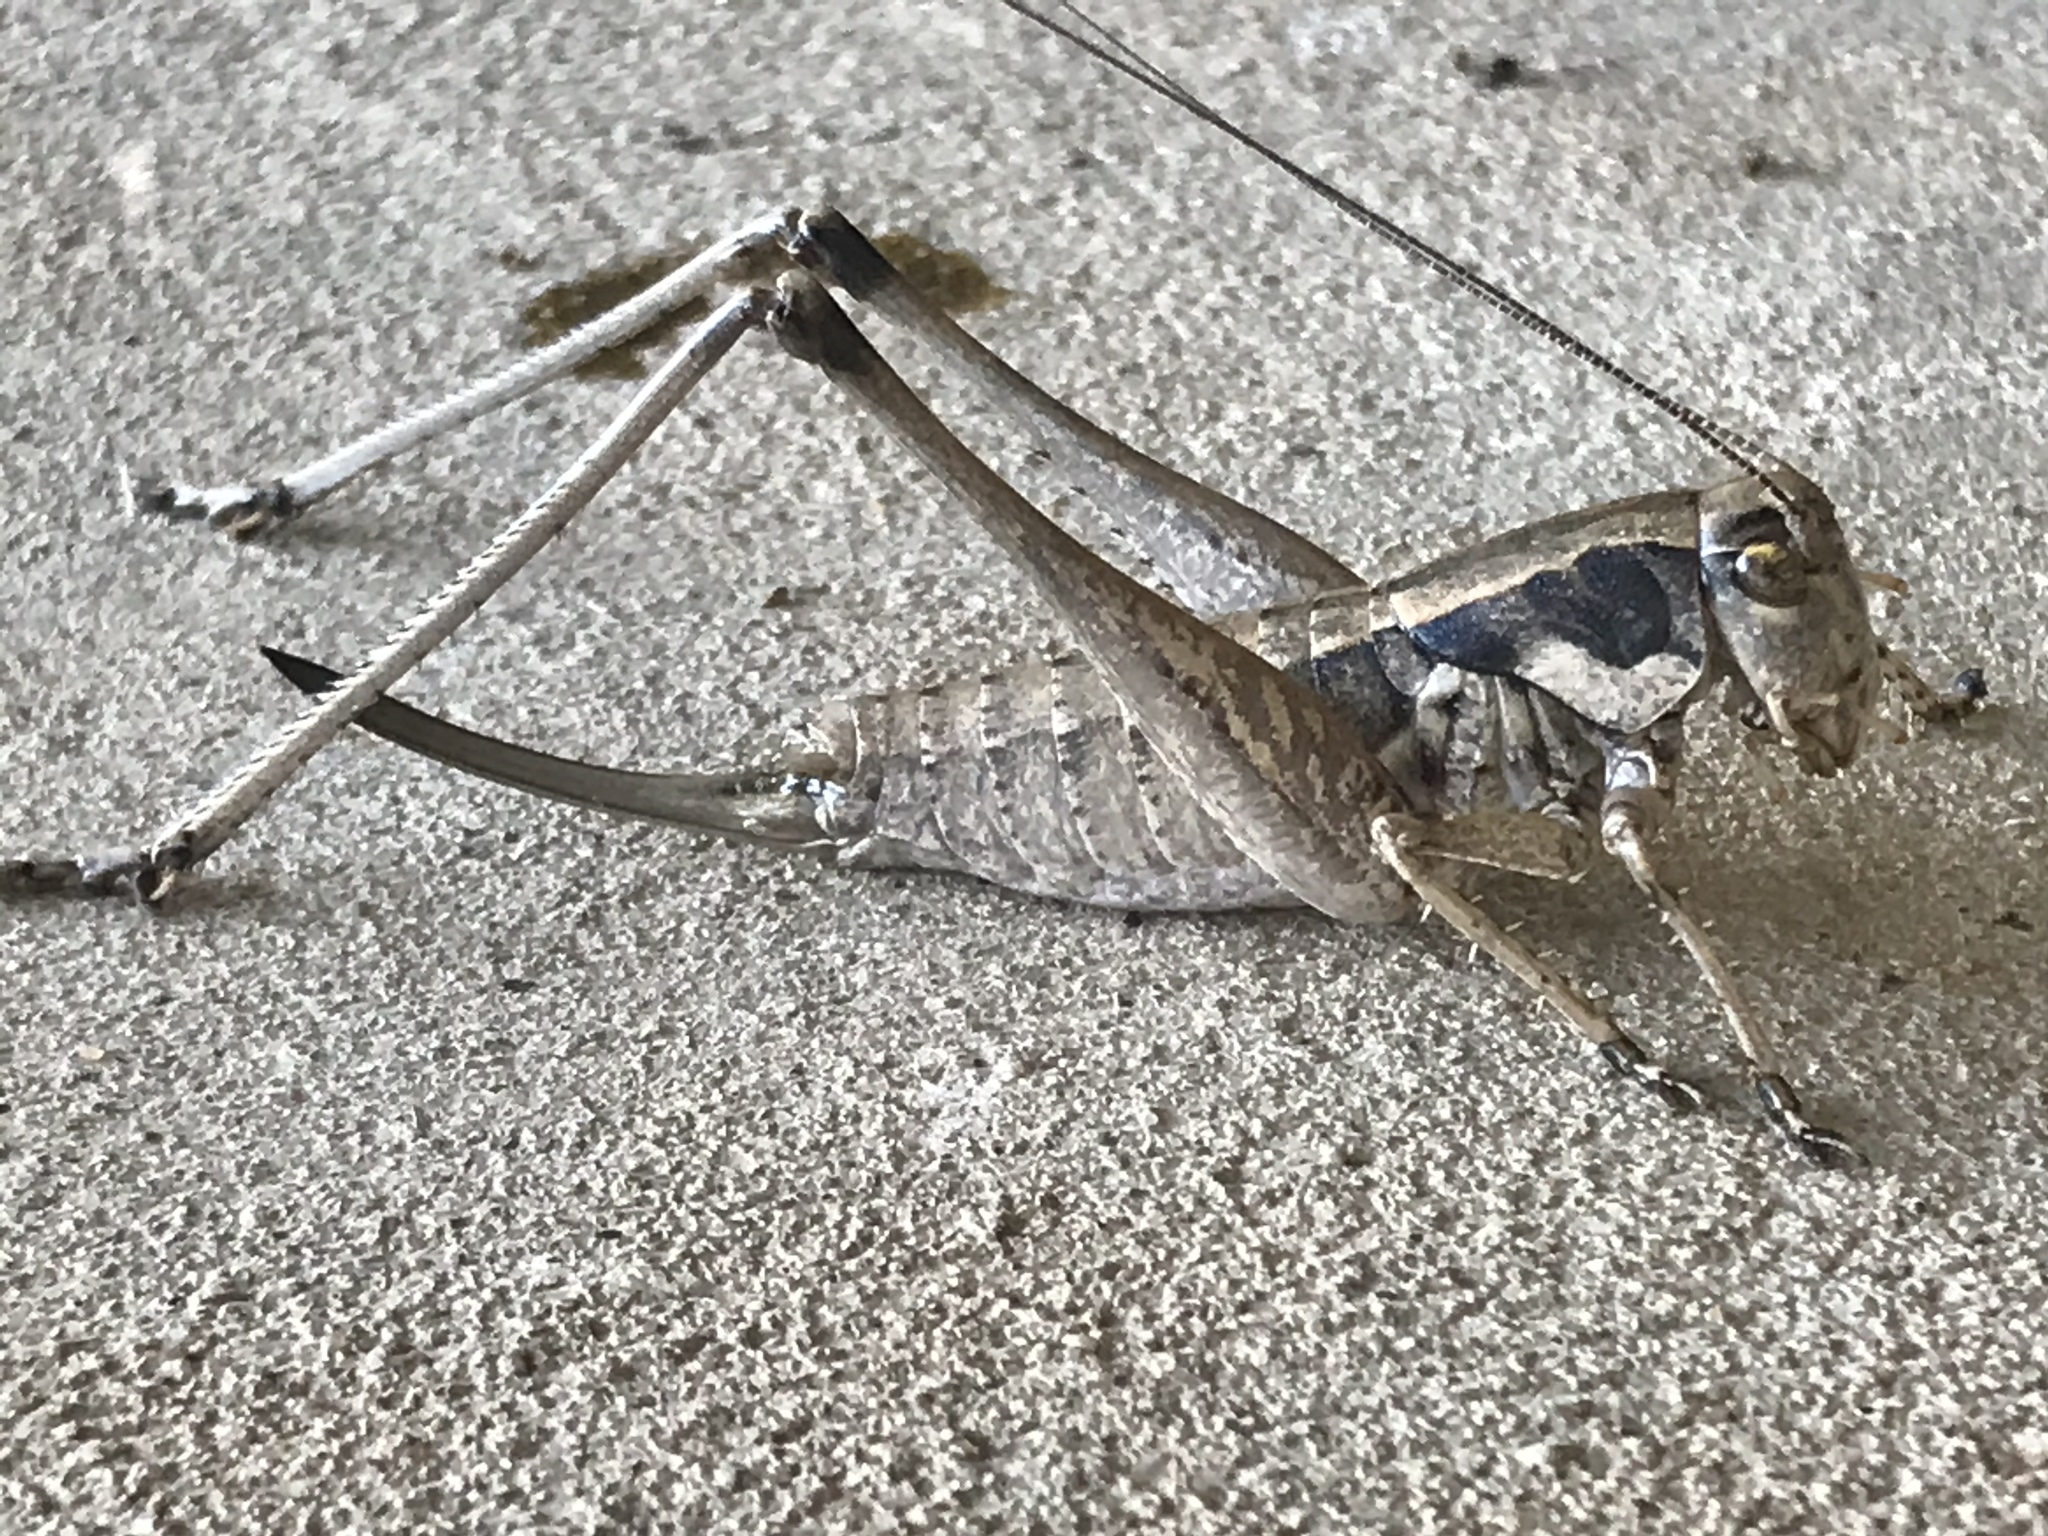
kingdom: Animalia
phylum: Arthropoda
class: Insecta
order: Orthoptera
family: Tettigoniidae
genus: Pediodectes
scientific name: Pediodectes nigromarginatus
